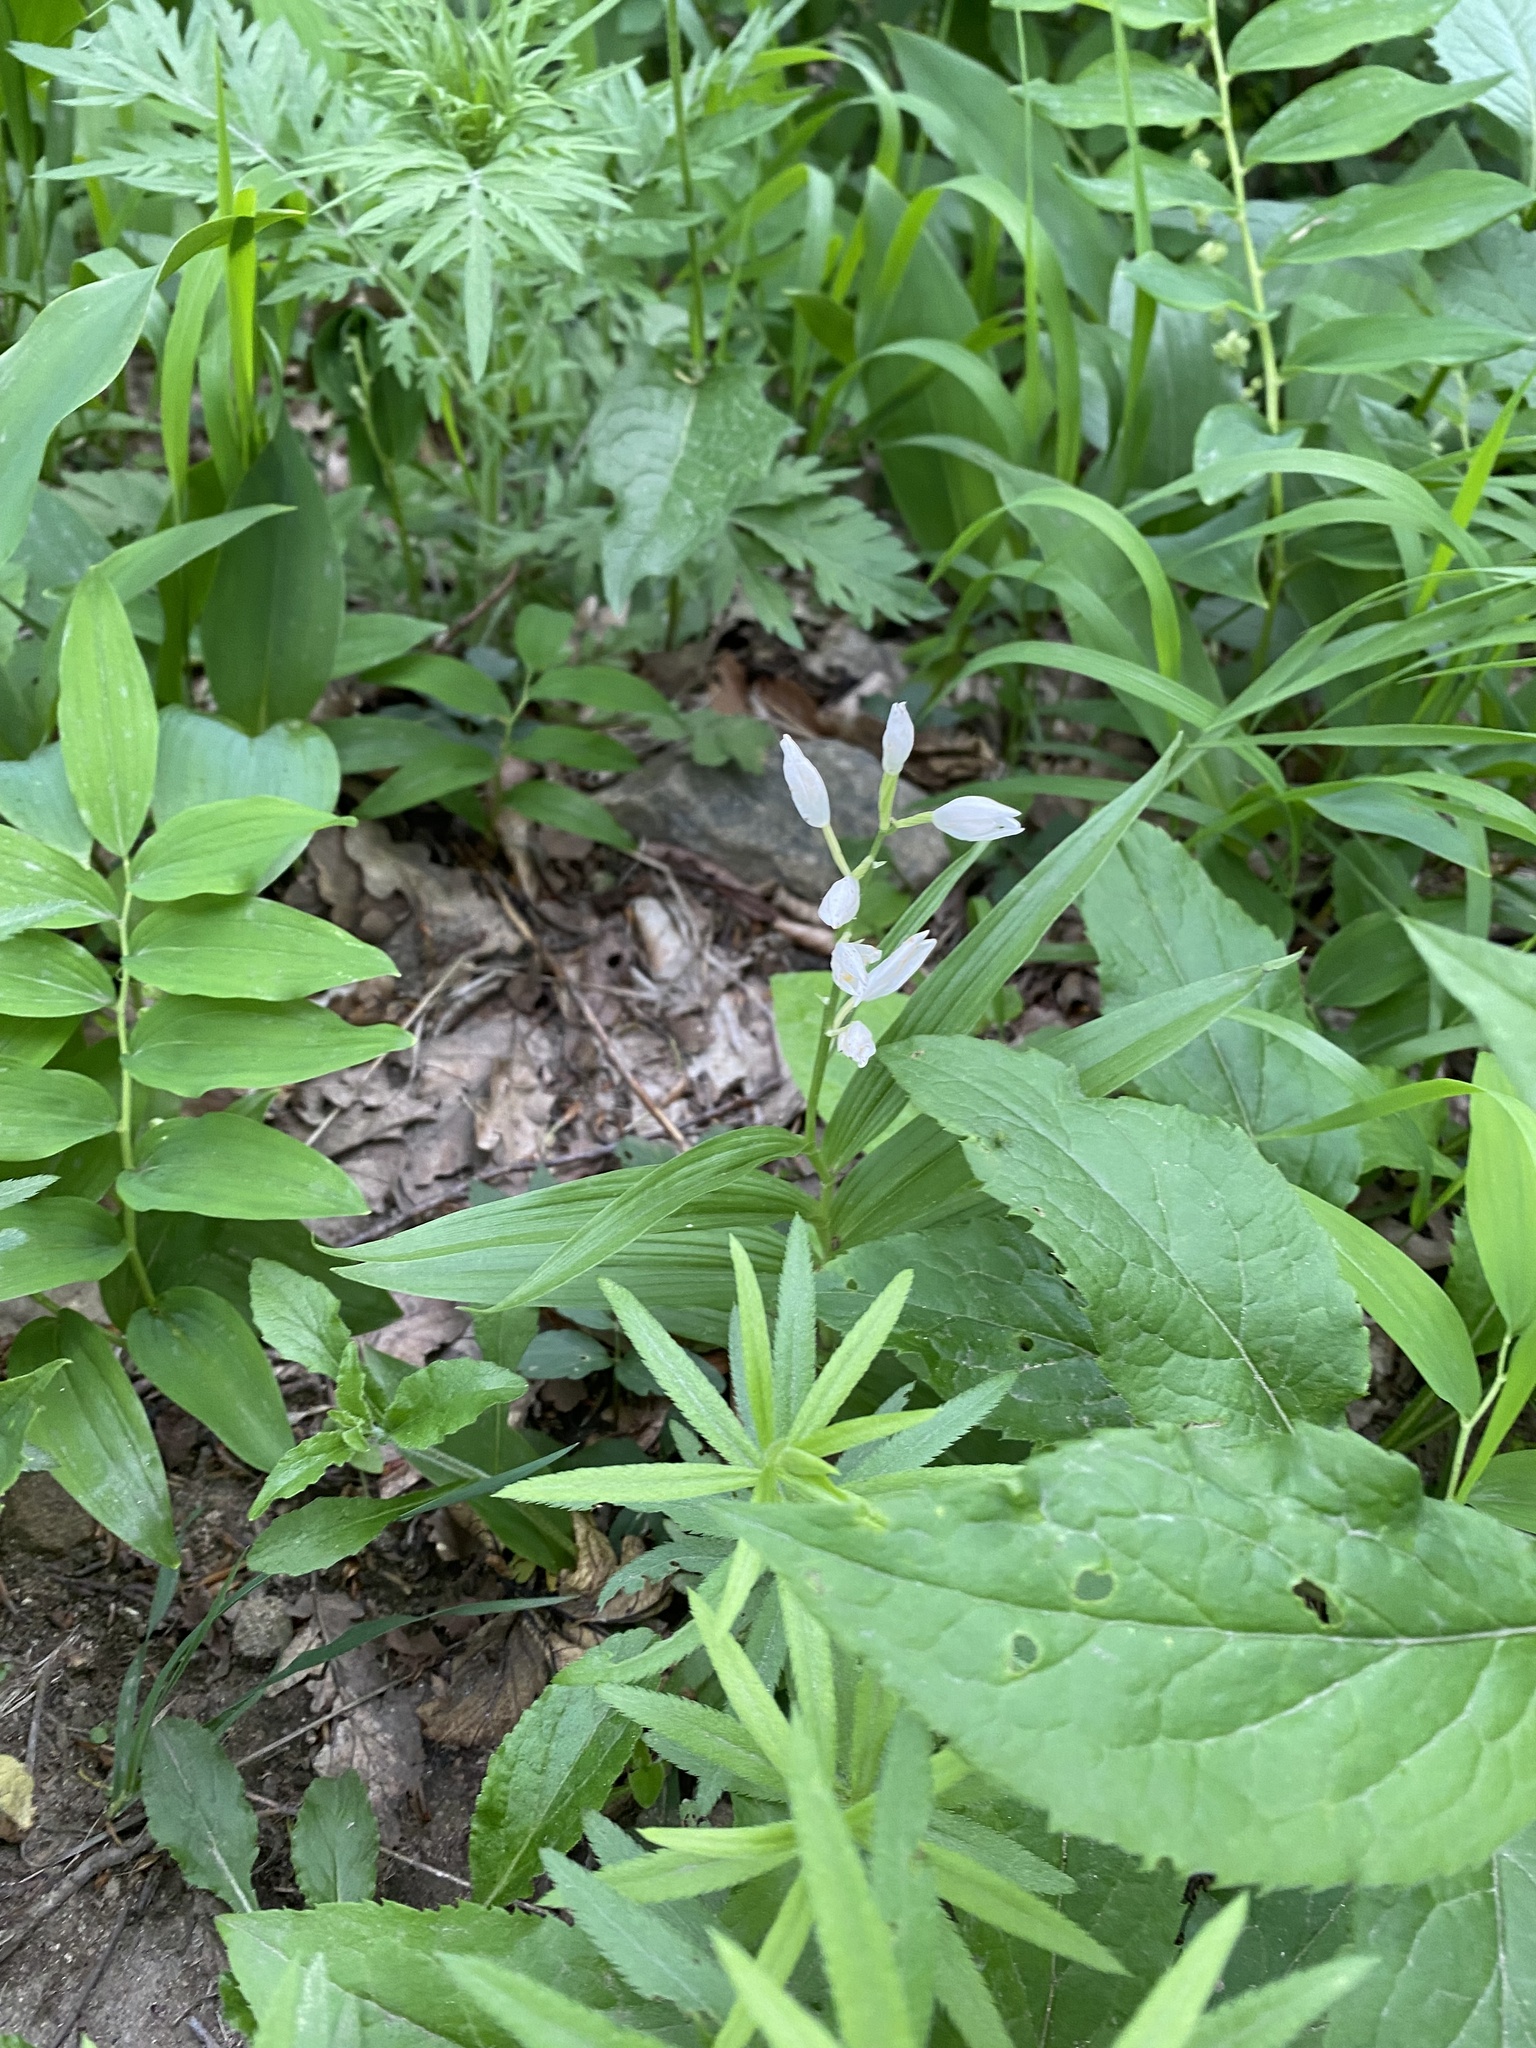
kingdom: Plantae
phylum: Tracheophyta
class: Liliopsida
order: Asparagales
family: Orchidaceae
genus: Cephalanthera
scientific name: Cephalanthera longifolia
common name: Narrow-leaved helleborine
